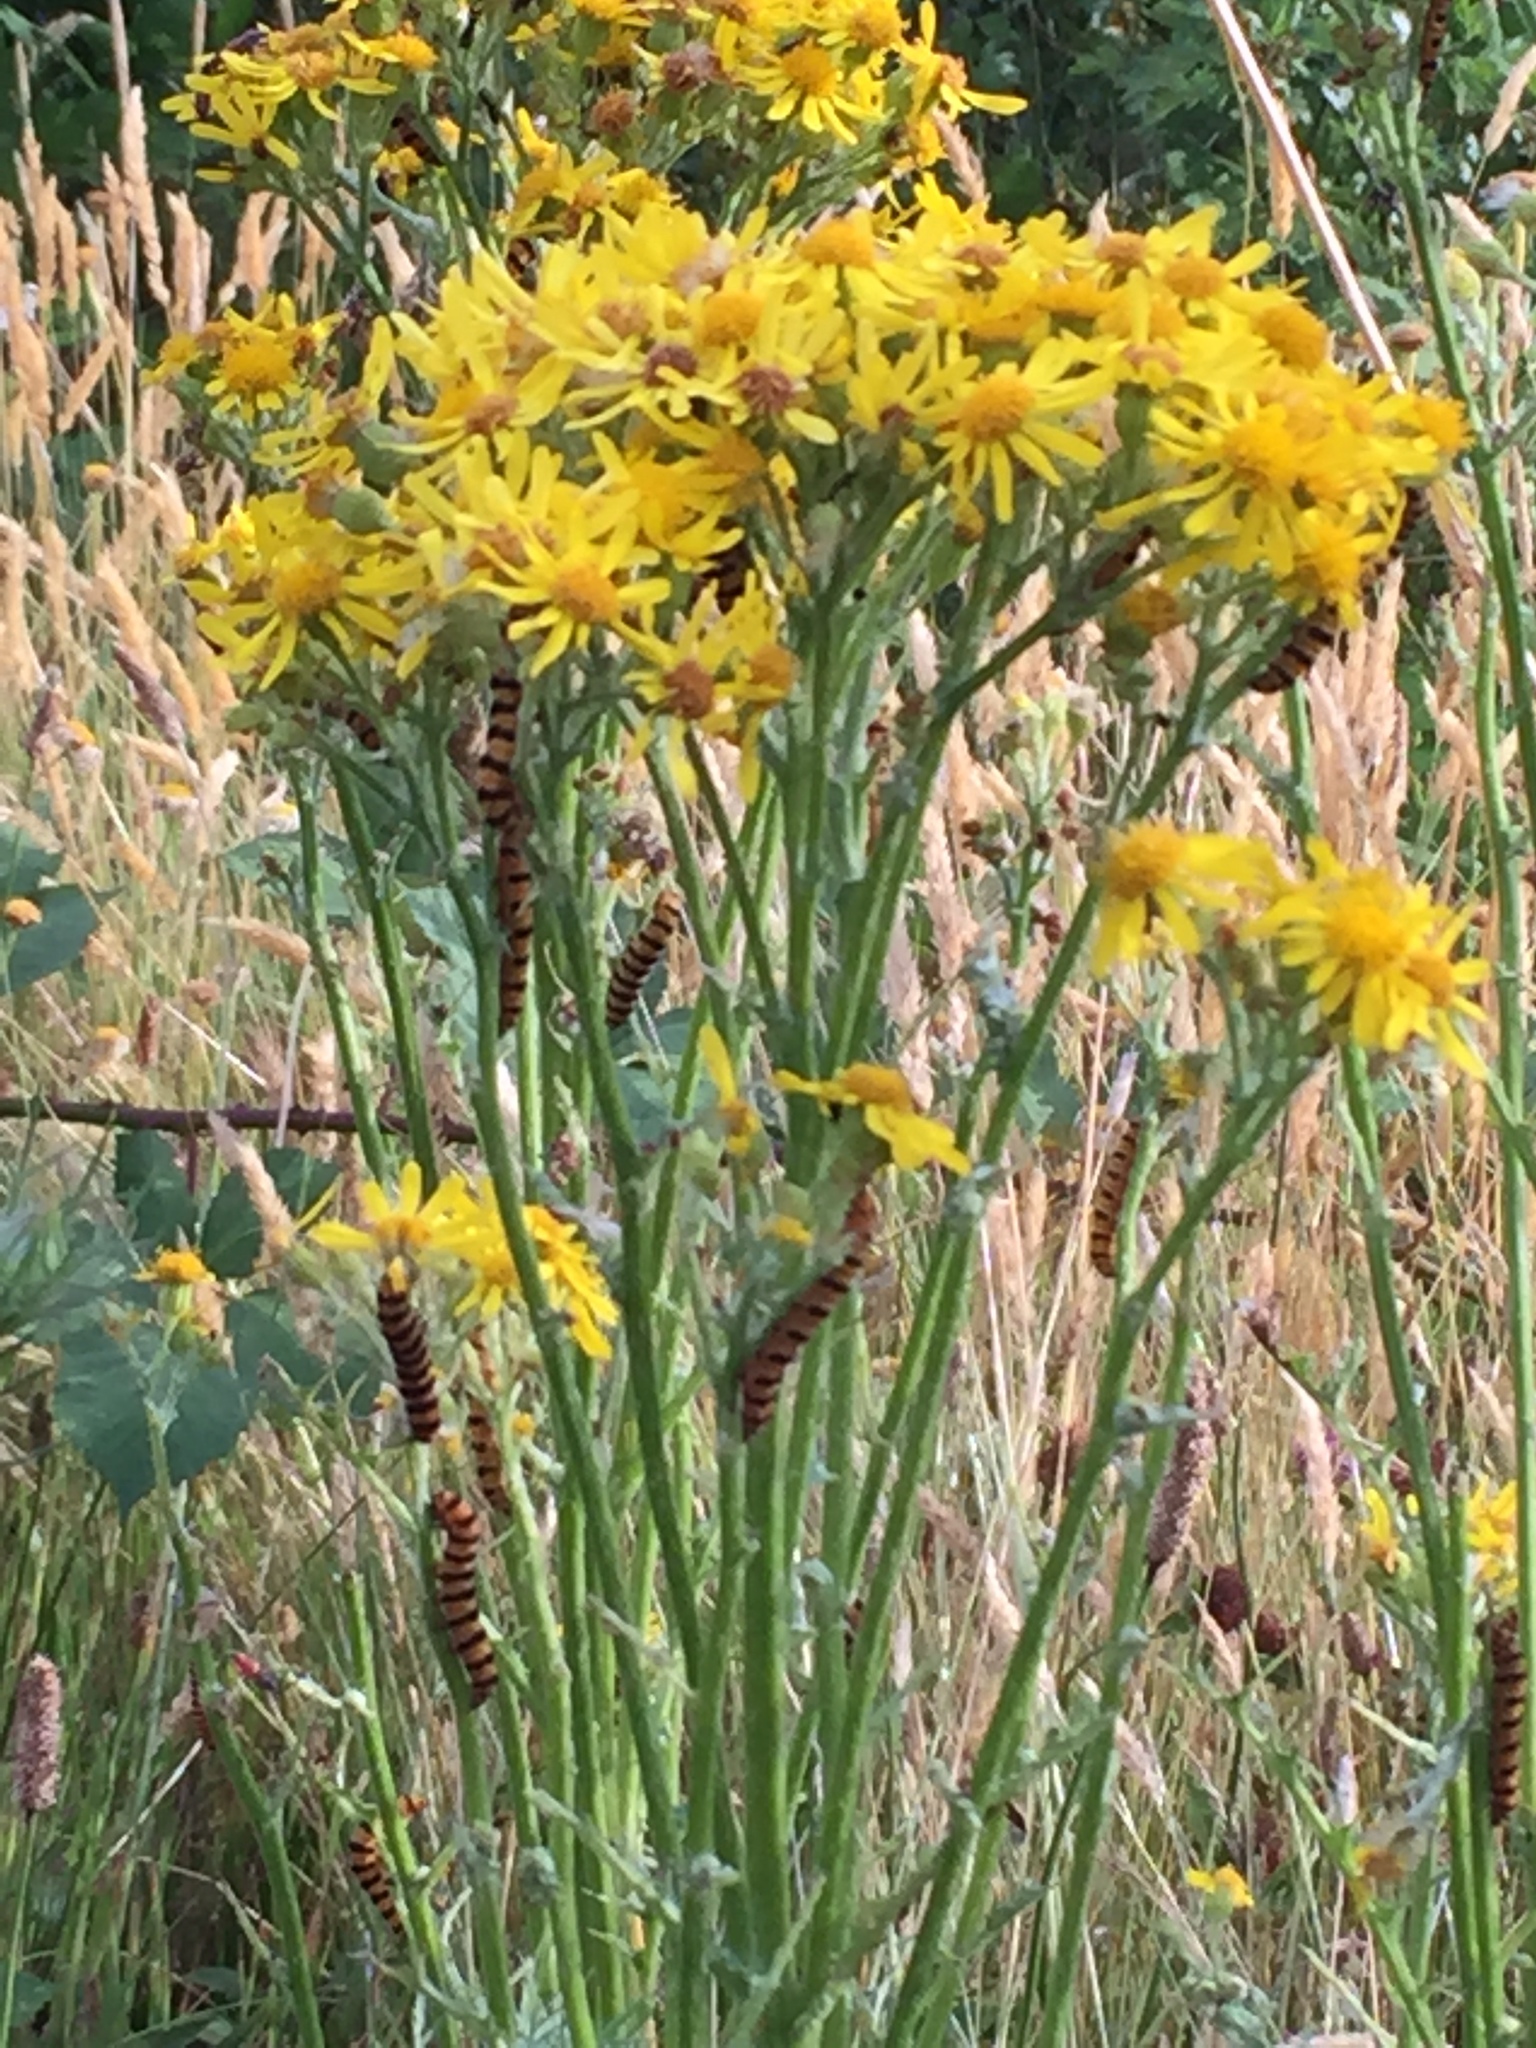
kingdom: Plantae
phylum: Tracheophyta
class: Magnoliopsida
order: Asterales
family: Asteraceae
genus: Jacobaea
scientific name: Jacobaea vulgaris
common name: Stinking willie
